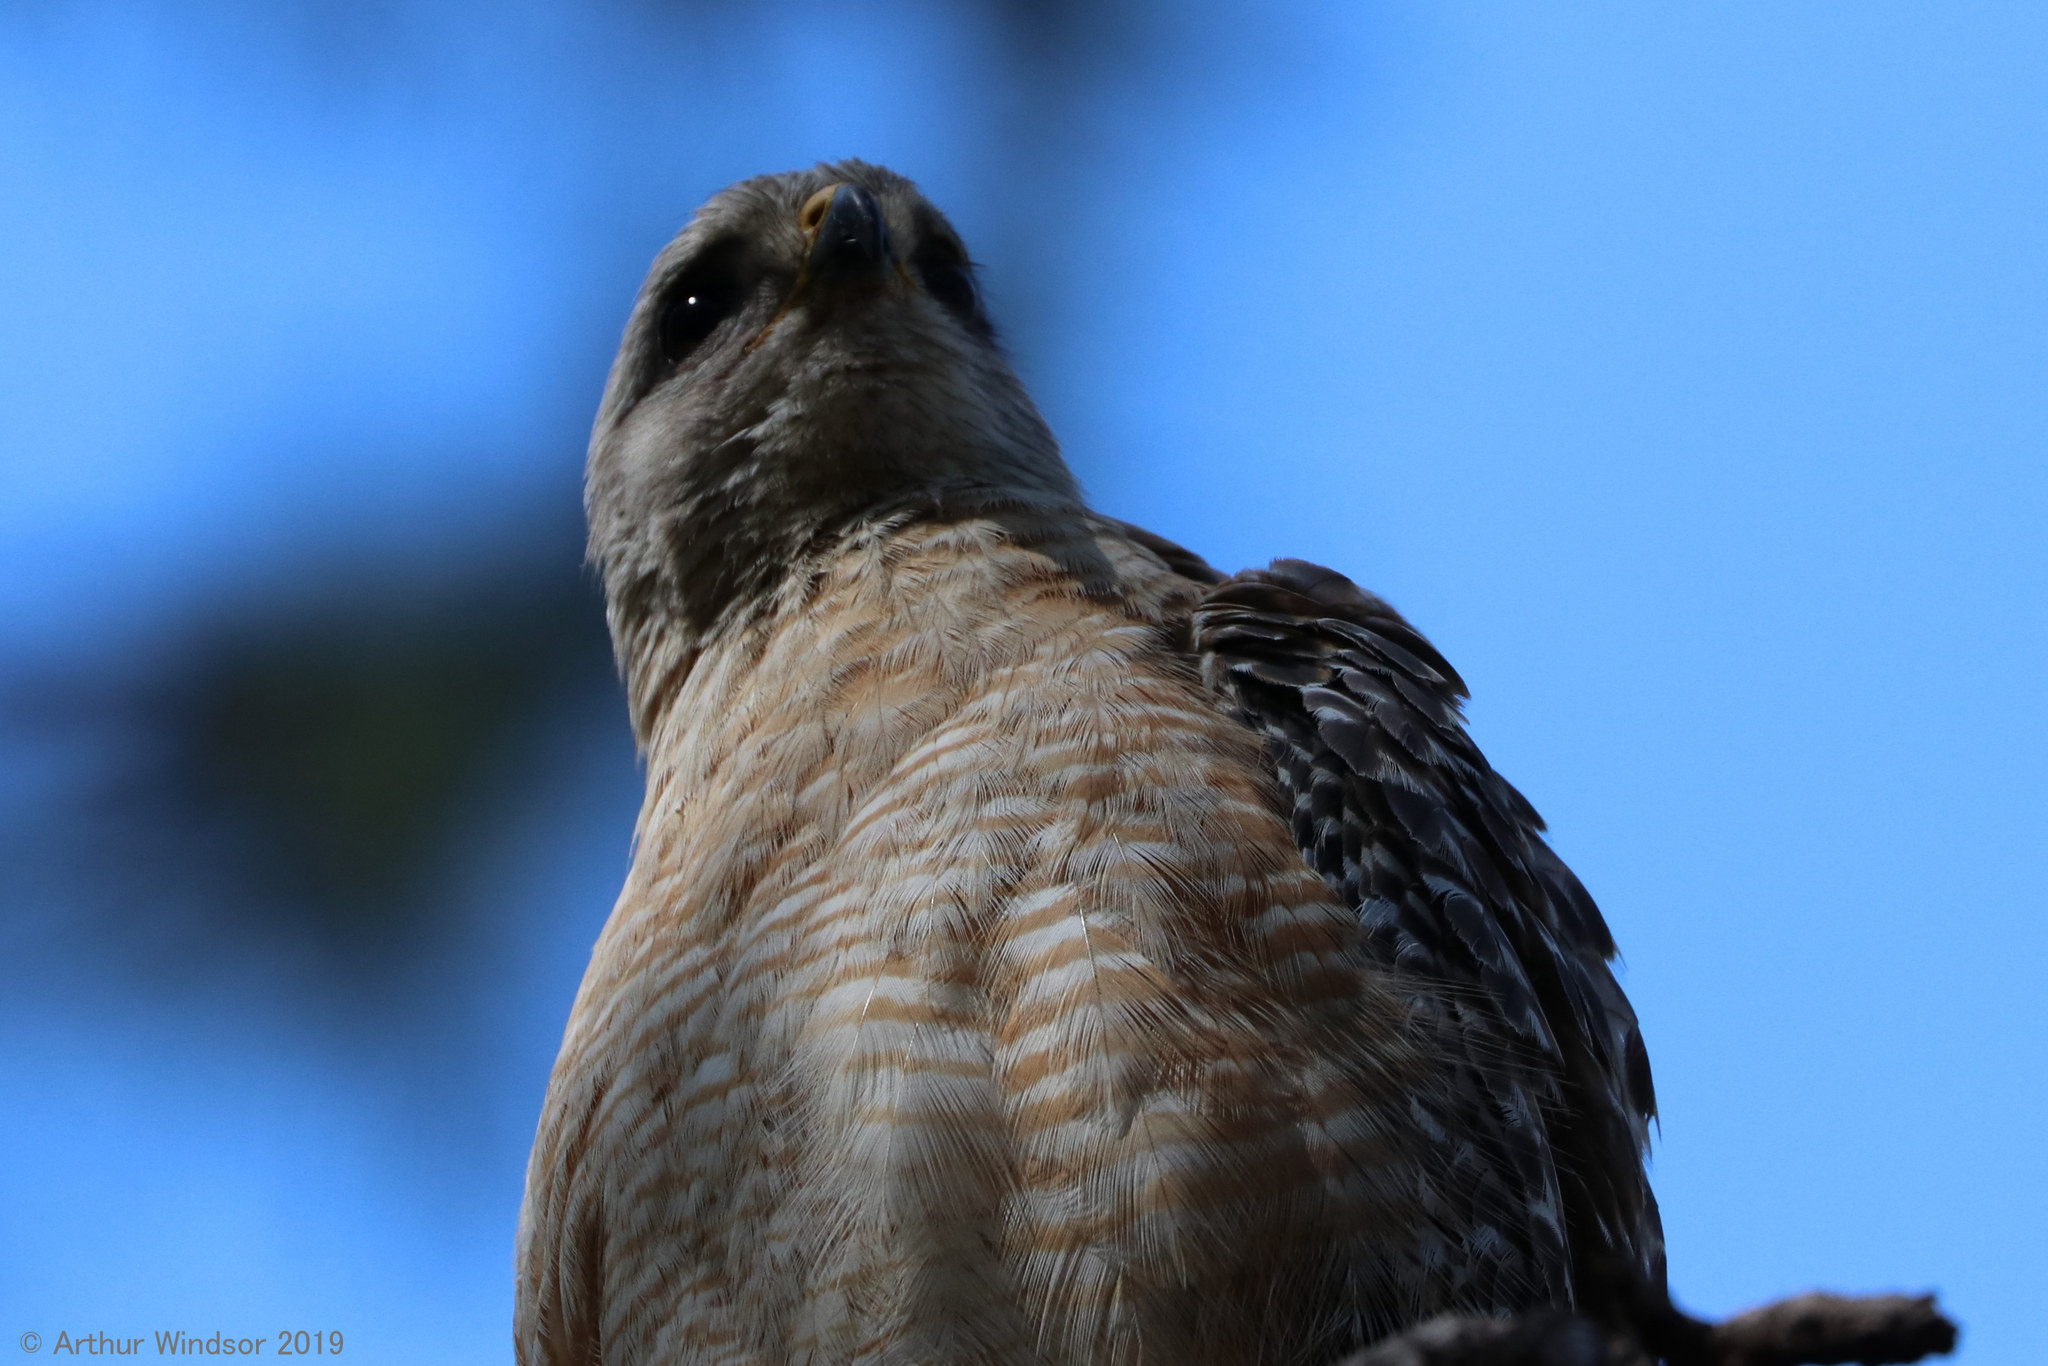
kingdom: Animalia
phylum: Chordata
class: Aves
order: Accipitriformes
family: Accipitridae
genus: Buteo
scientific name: Buteo lineatus
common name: Red-shouldered hawk
